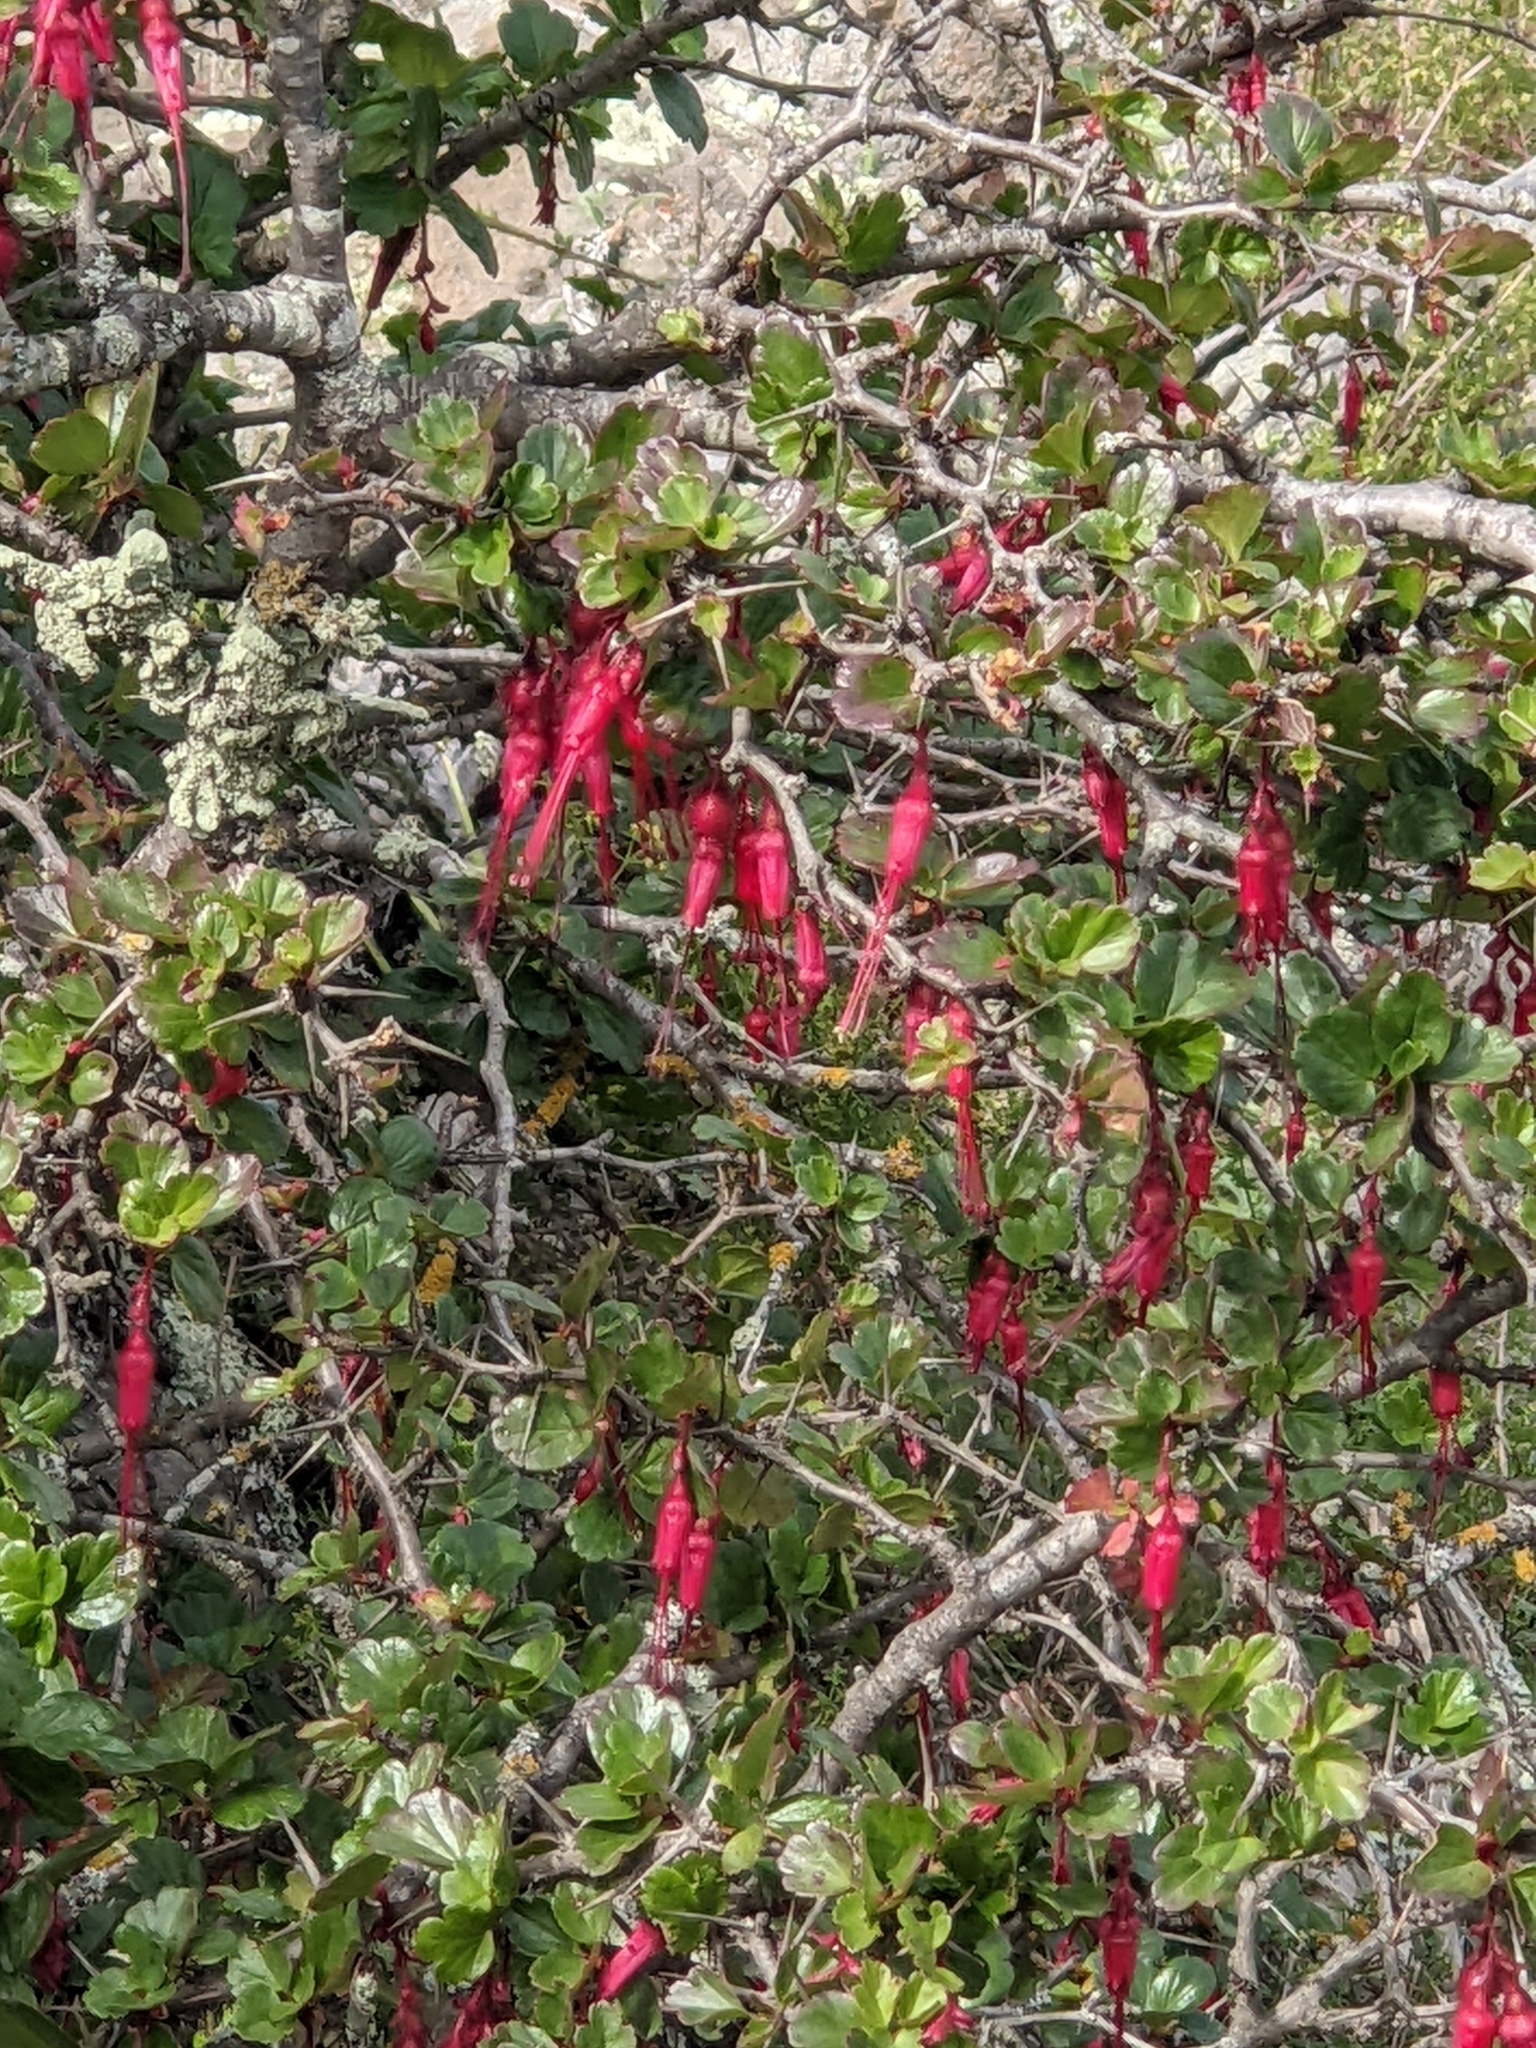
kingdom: Plantae
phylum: Tracheophyta
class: Magnoliopsida
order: Saxifragales
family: Grossulariaceae
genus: Ribes
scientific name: Ribes speciosum
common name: Fuchsia-flower gooseberry
